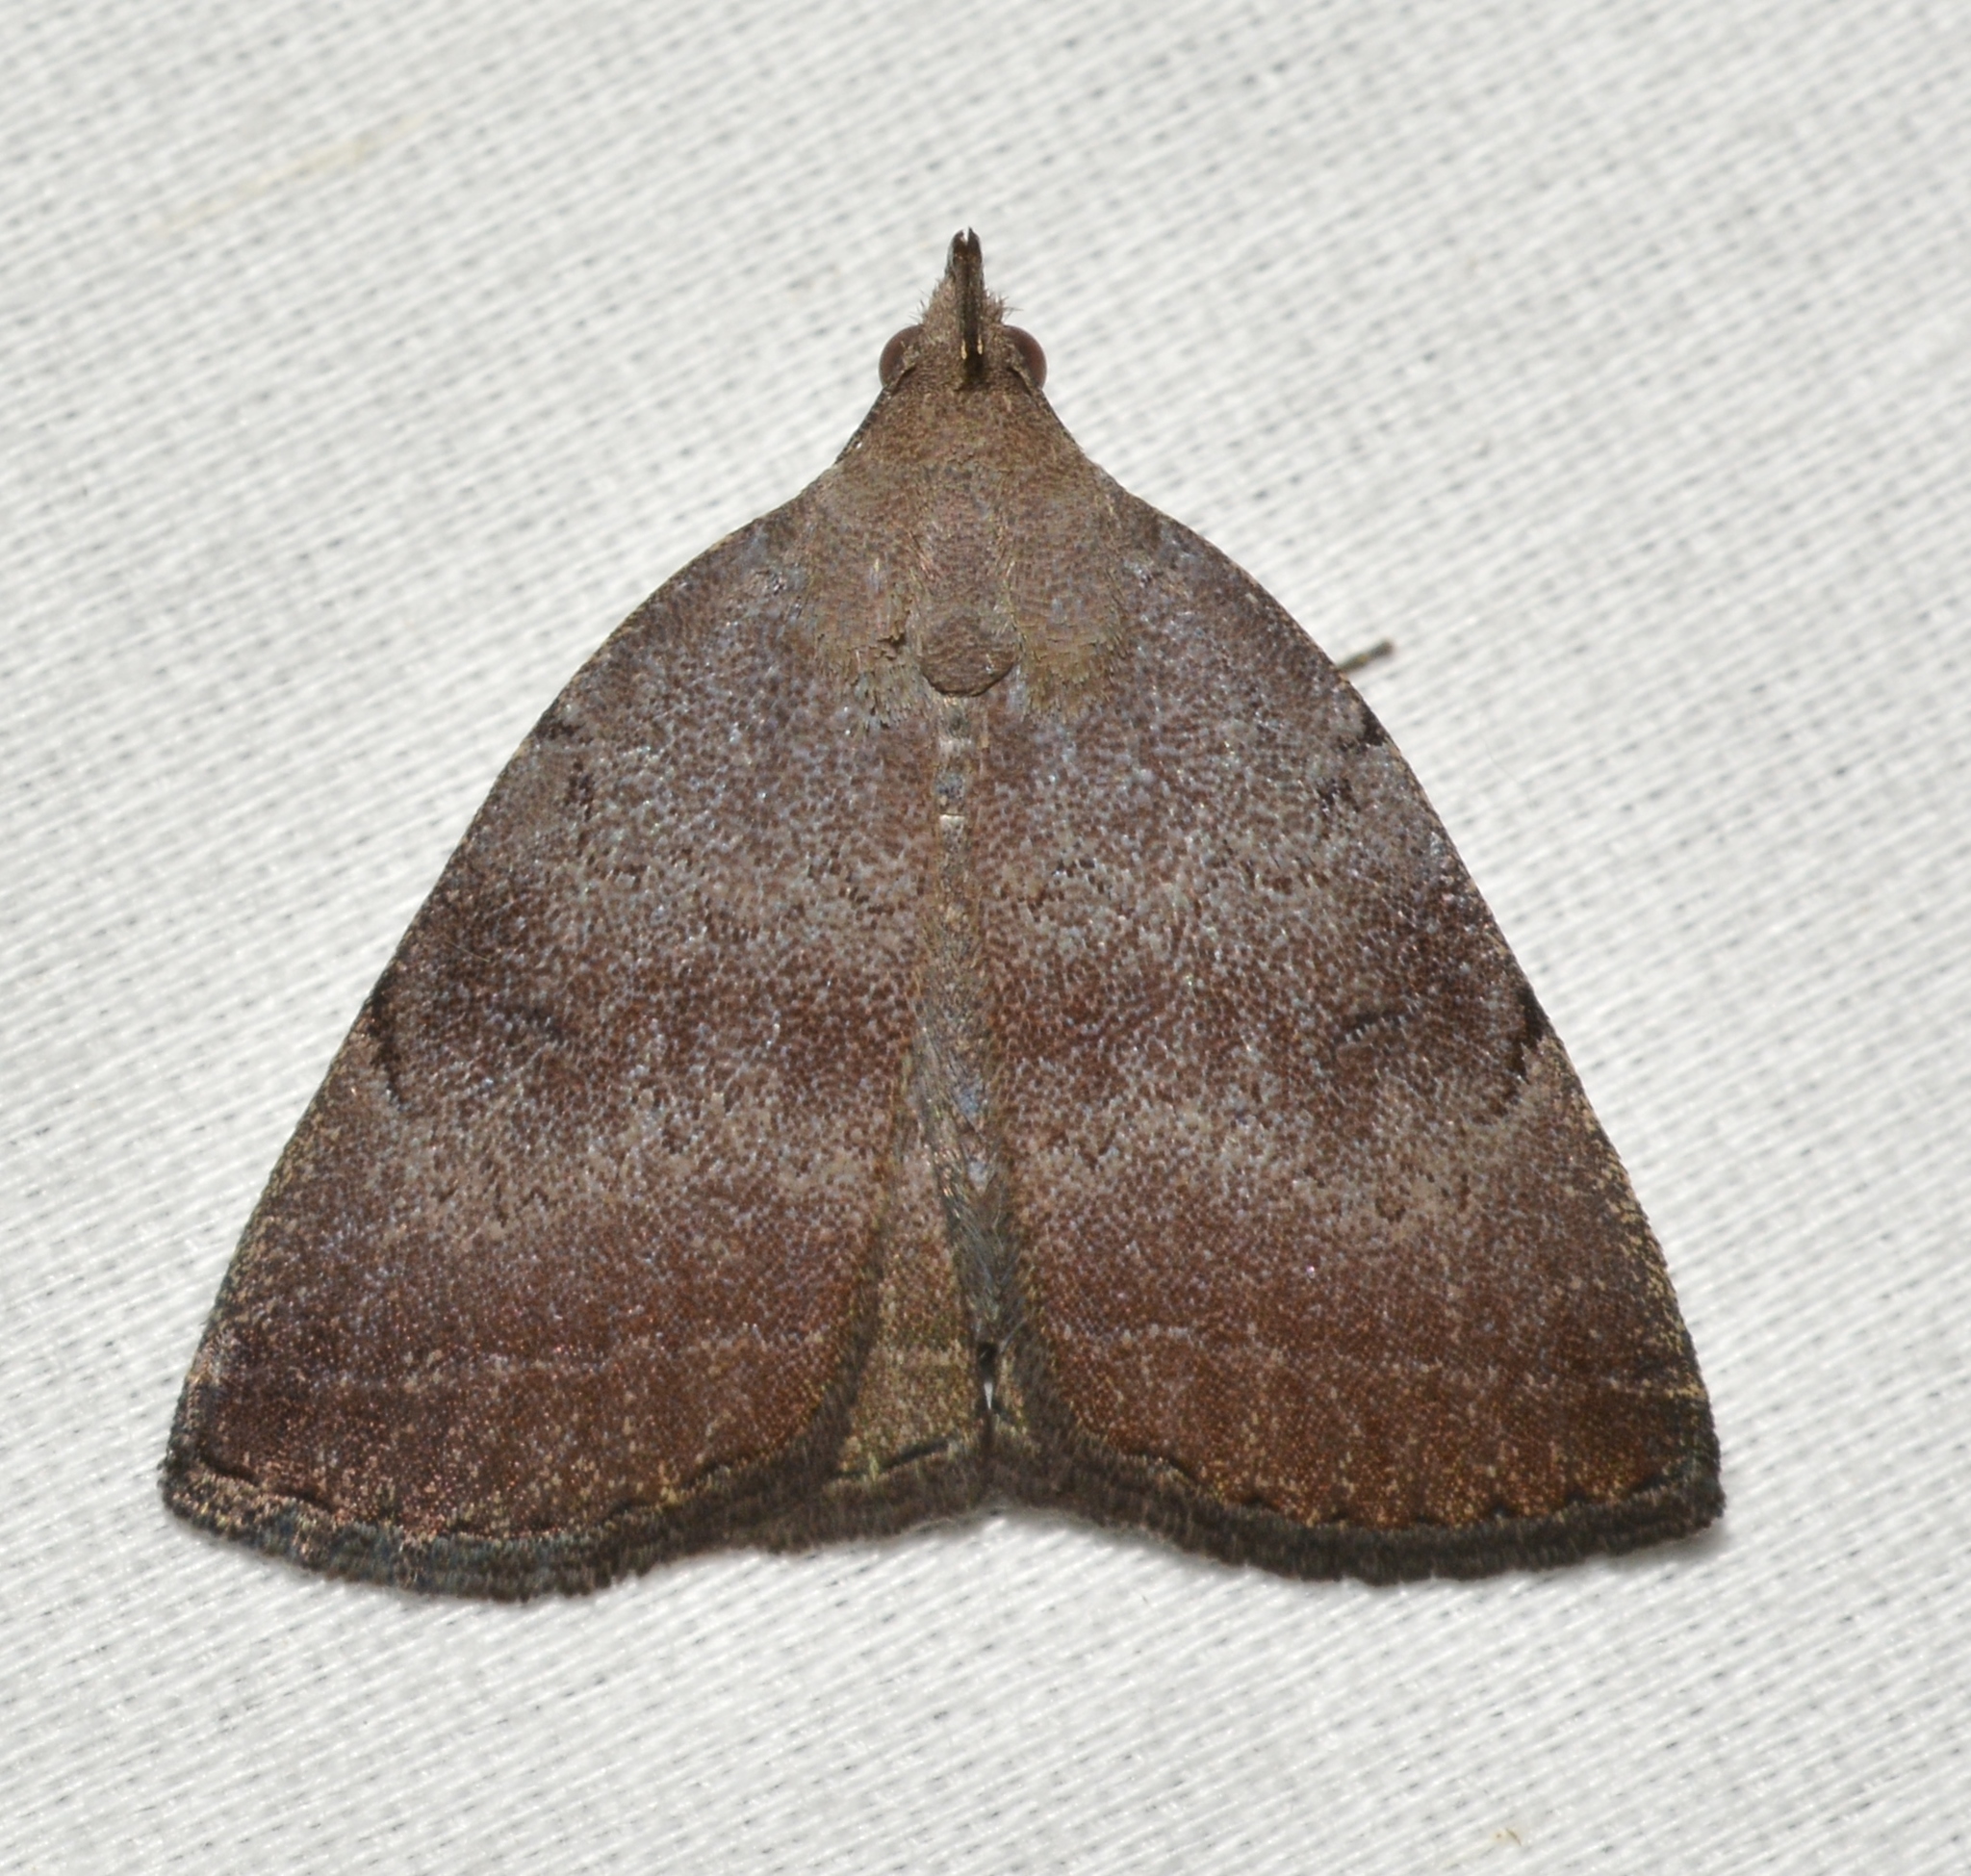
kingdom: Animalia
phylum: Arthropoda
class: Insecta
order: Lepidoptera
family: Erebidae
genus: Zanclognatha
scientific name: Zanclognatha martha
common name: Pine barrens zanclognatha
